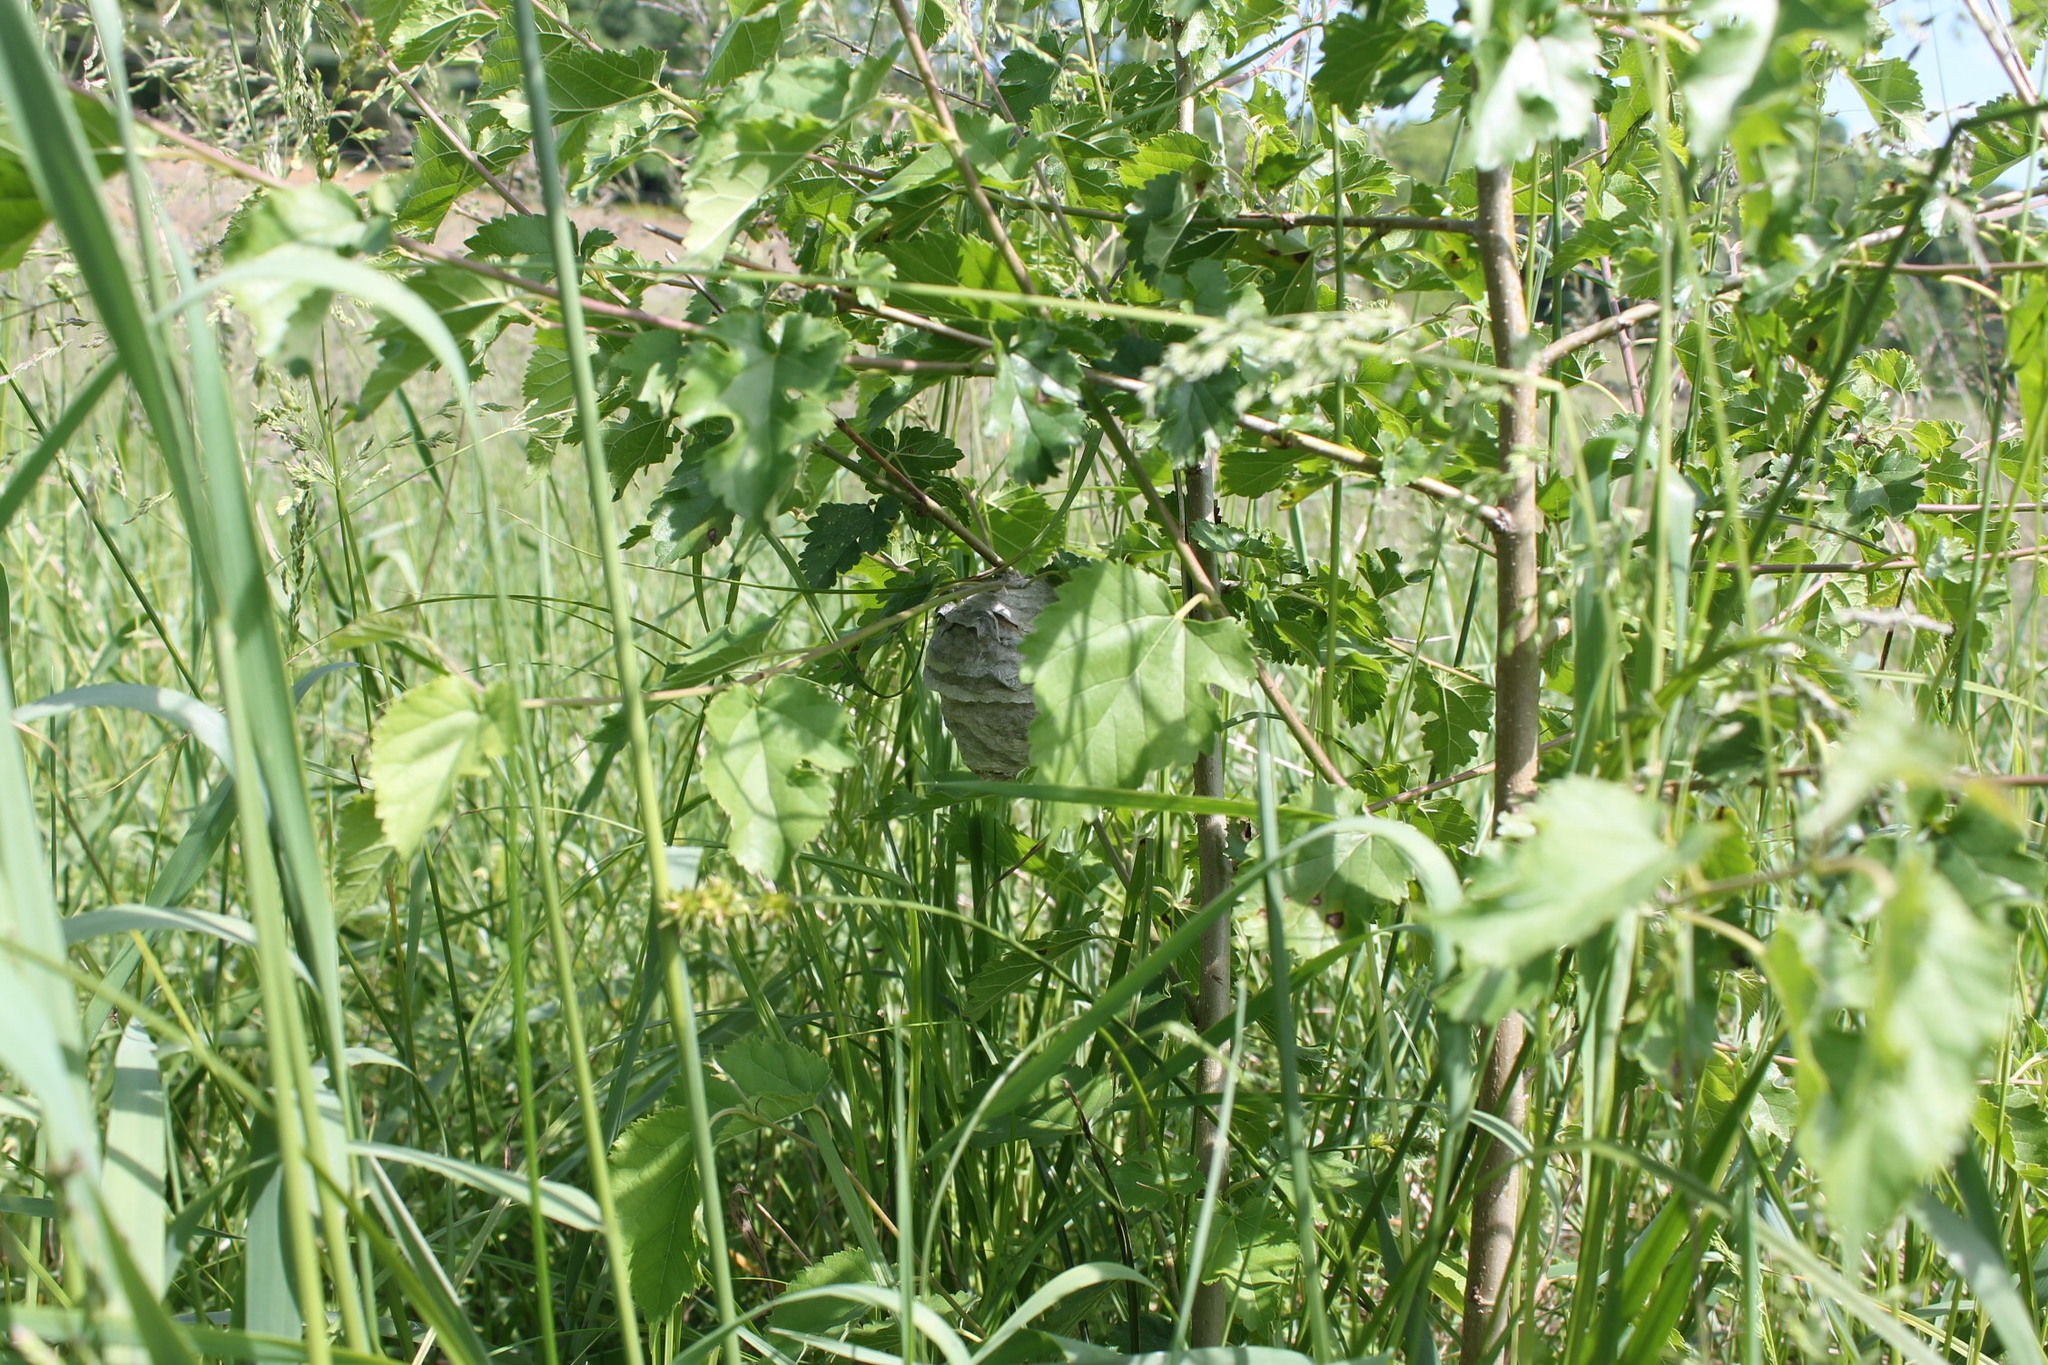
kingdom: Animalia
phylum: Arthropoda
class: Insecta
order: Hymenoptera
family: Vespidae
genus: Dolichovespula
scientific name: Dolichovespula maculata
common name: Bald-faced hornet
